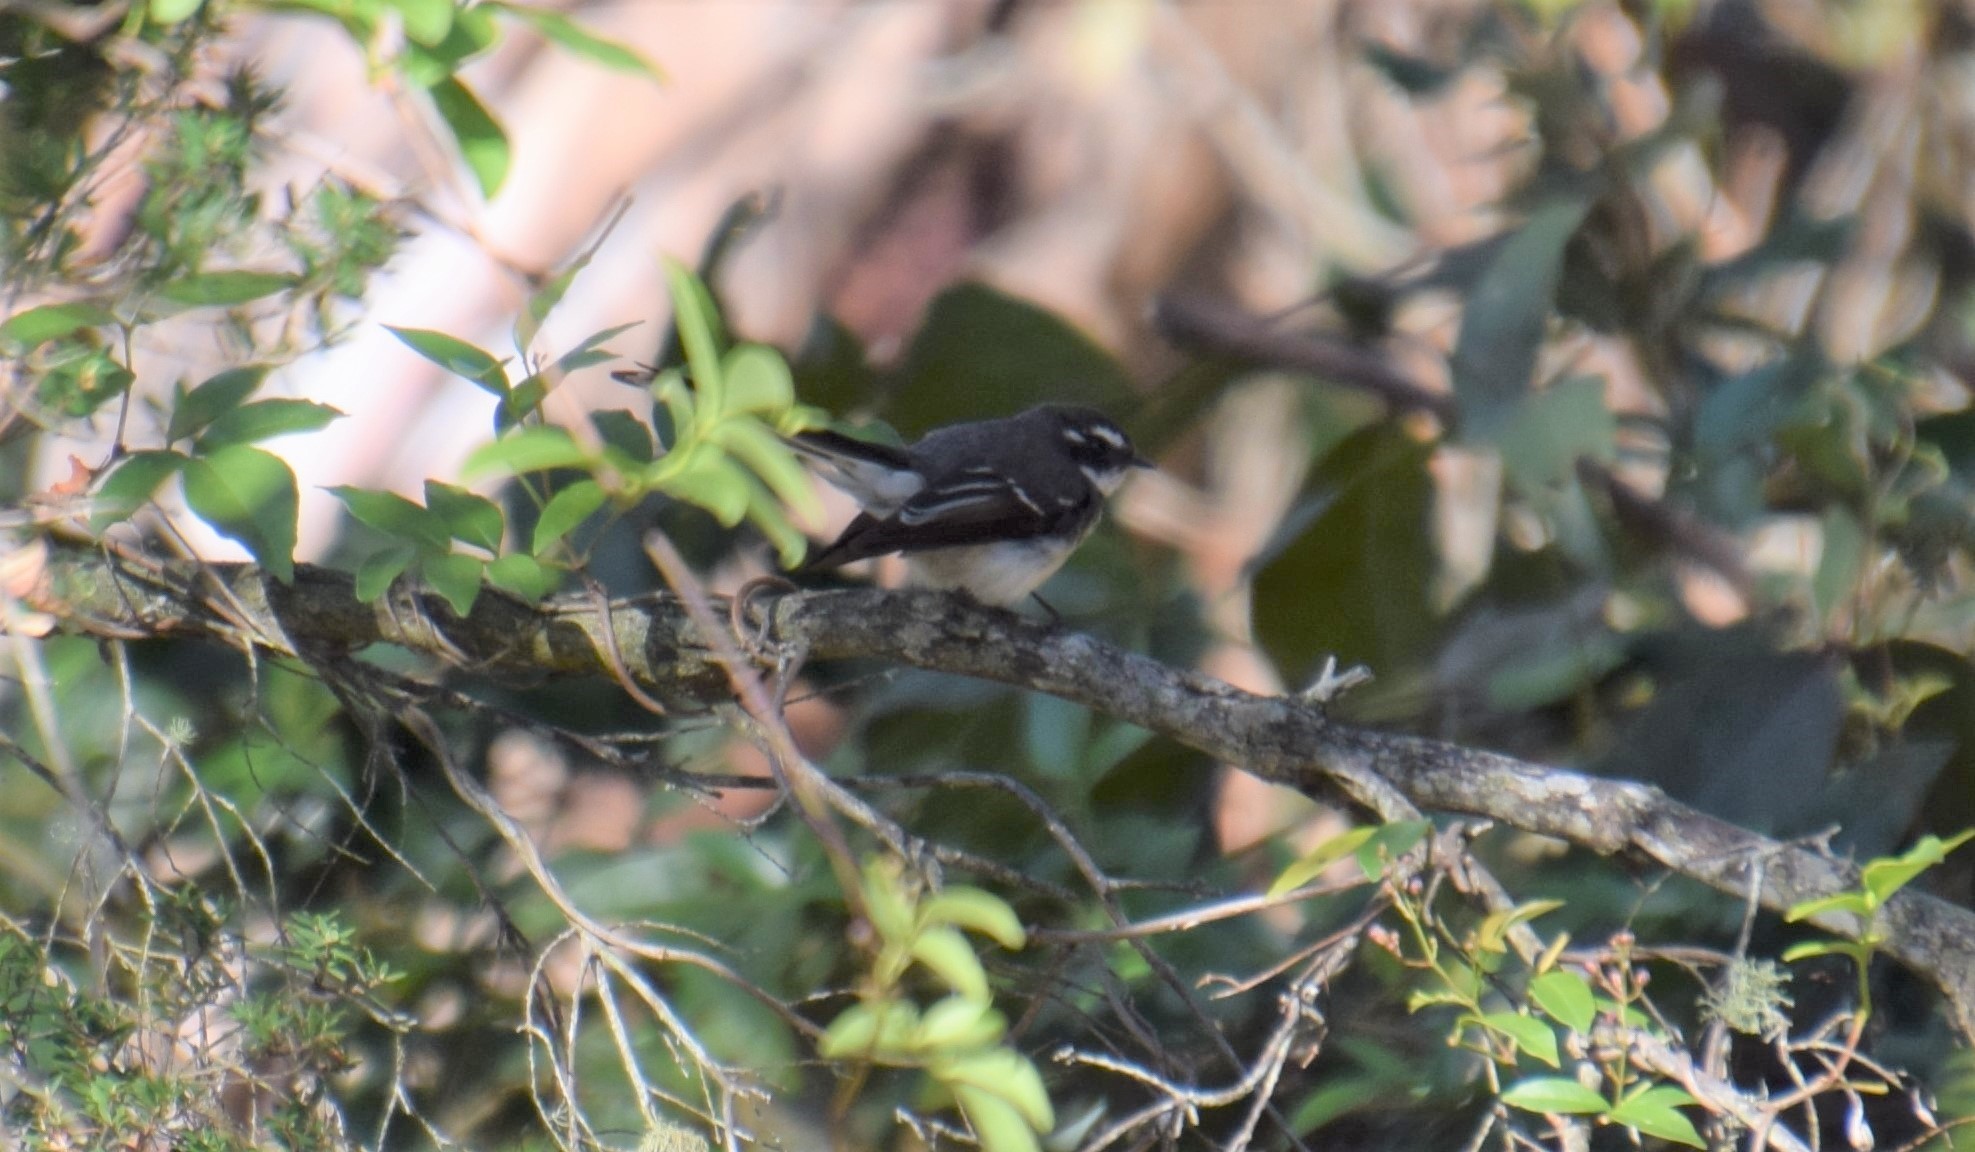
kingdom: Animalia
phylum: Chordata
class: Aves
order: Passeriformes
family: Rhipiduridae
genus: Rhipidura
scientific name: Rhipidura albiscapa
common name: Grey fantail
